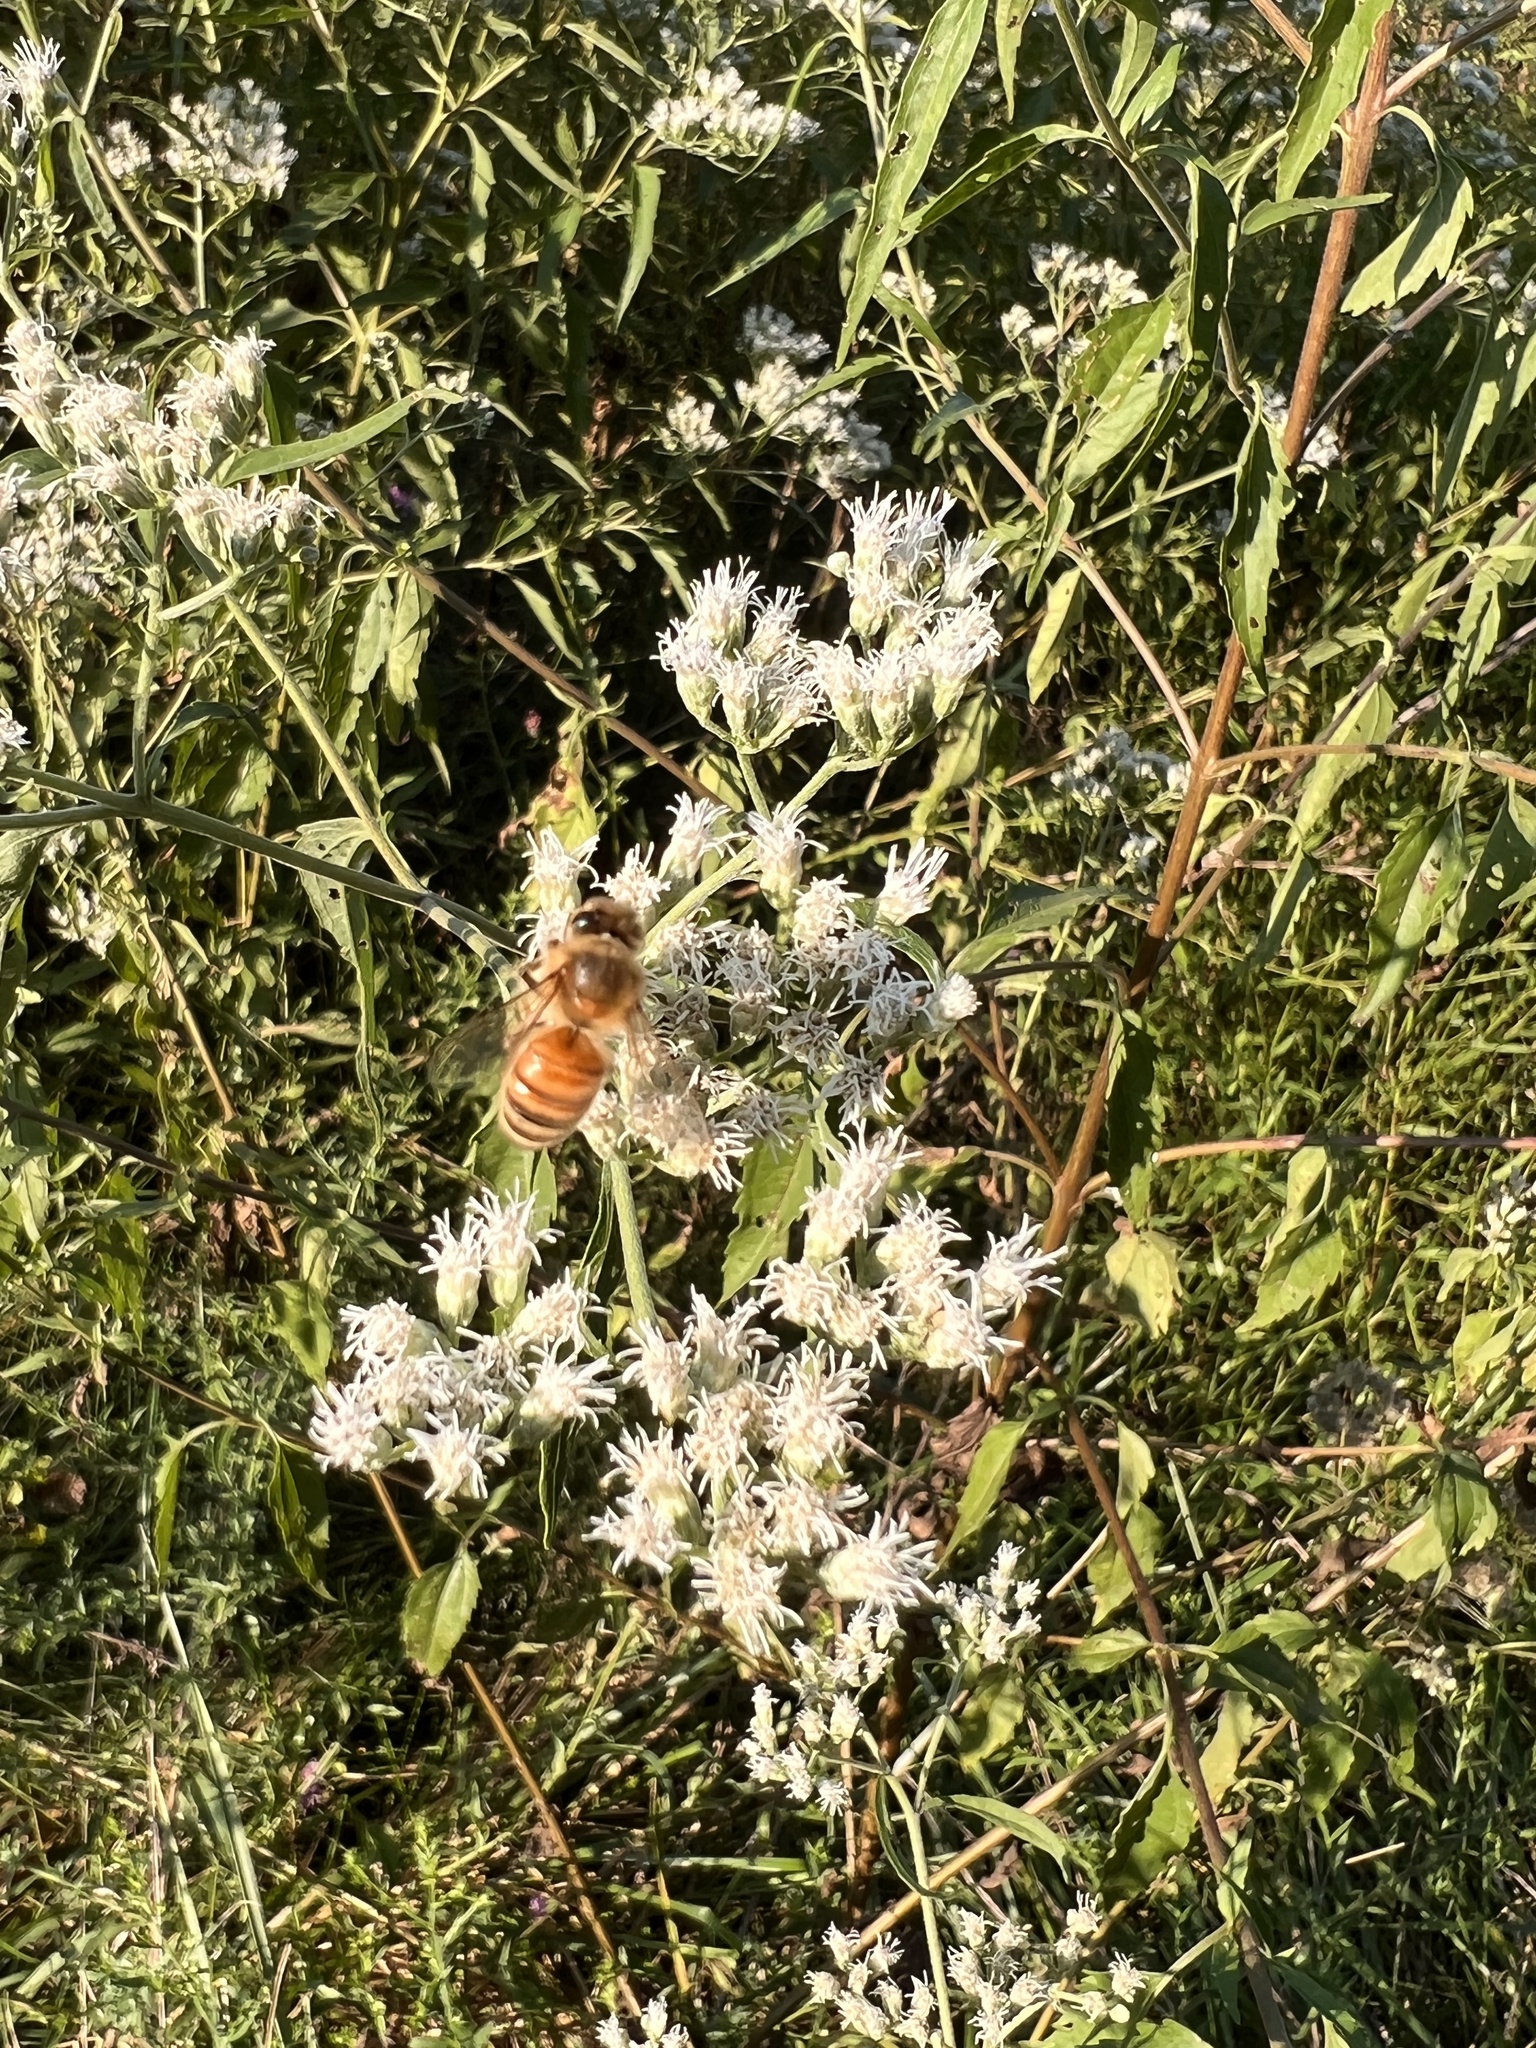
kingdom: Animalia
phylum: Arthropoda
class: Insecta
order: Hymenoptera
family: Apidae
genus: Apis
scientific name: Apis mellifera
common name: Honey bee
